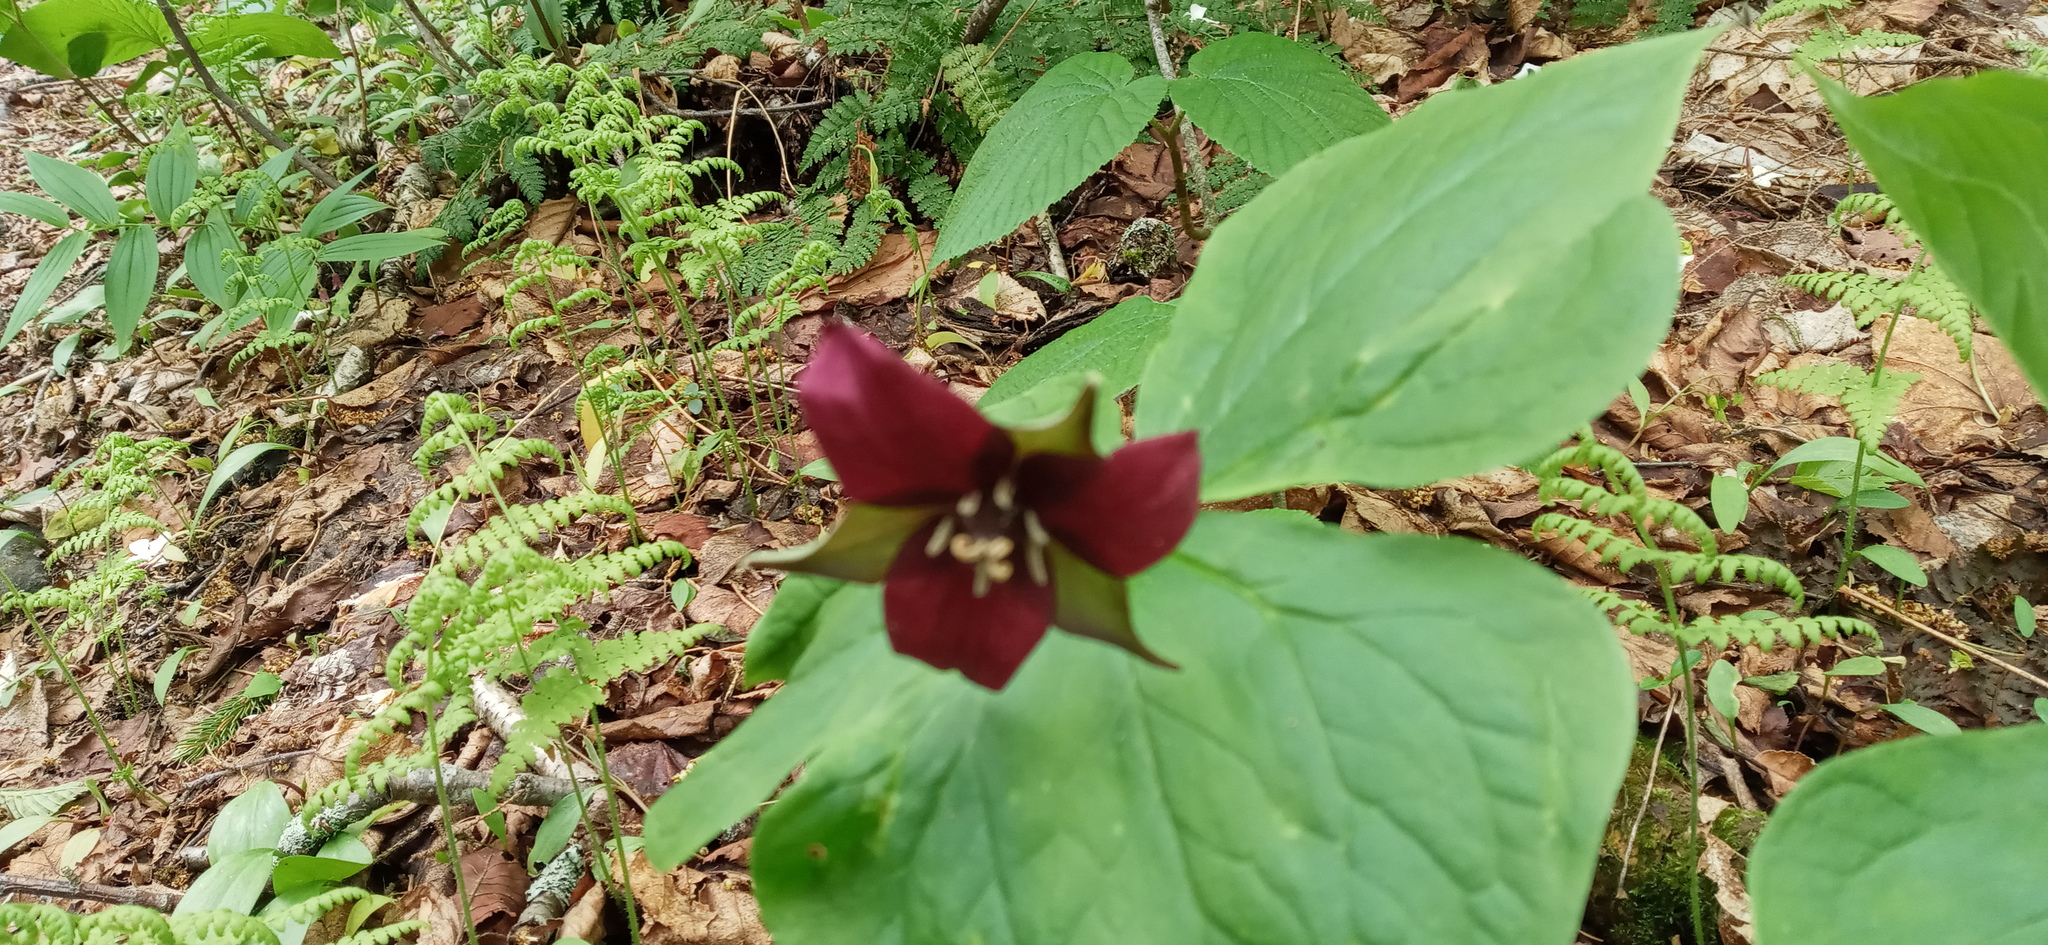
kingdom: Plantae
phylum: Tracheophyta
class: Liliopsida
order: Liliales
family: Melanthiaceae
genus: Trillium
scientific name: Trillium erectum
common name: Purple trillium
